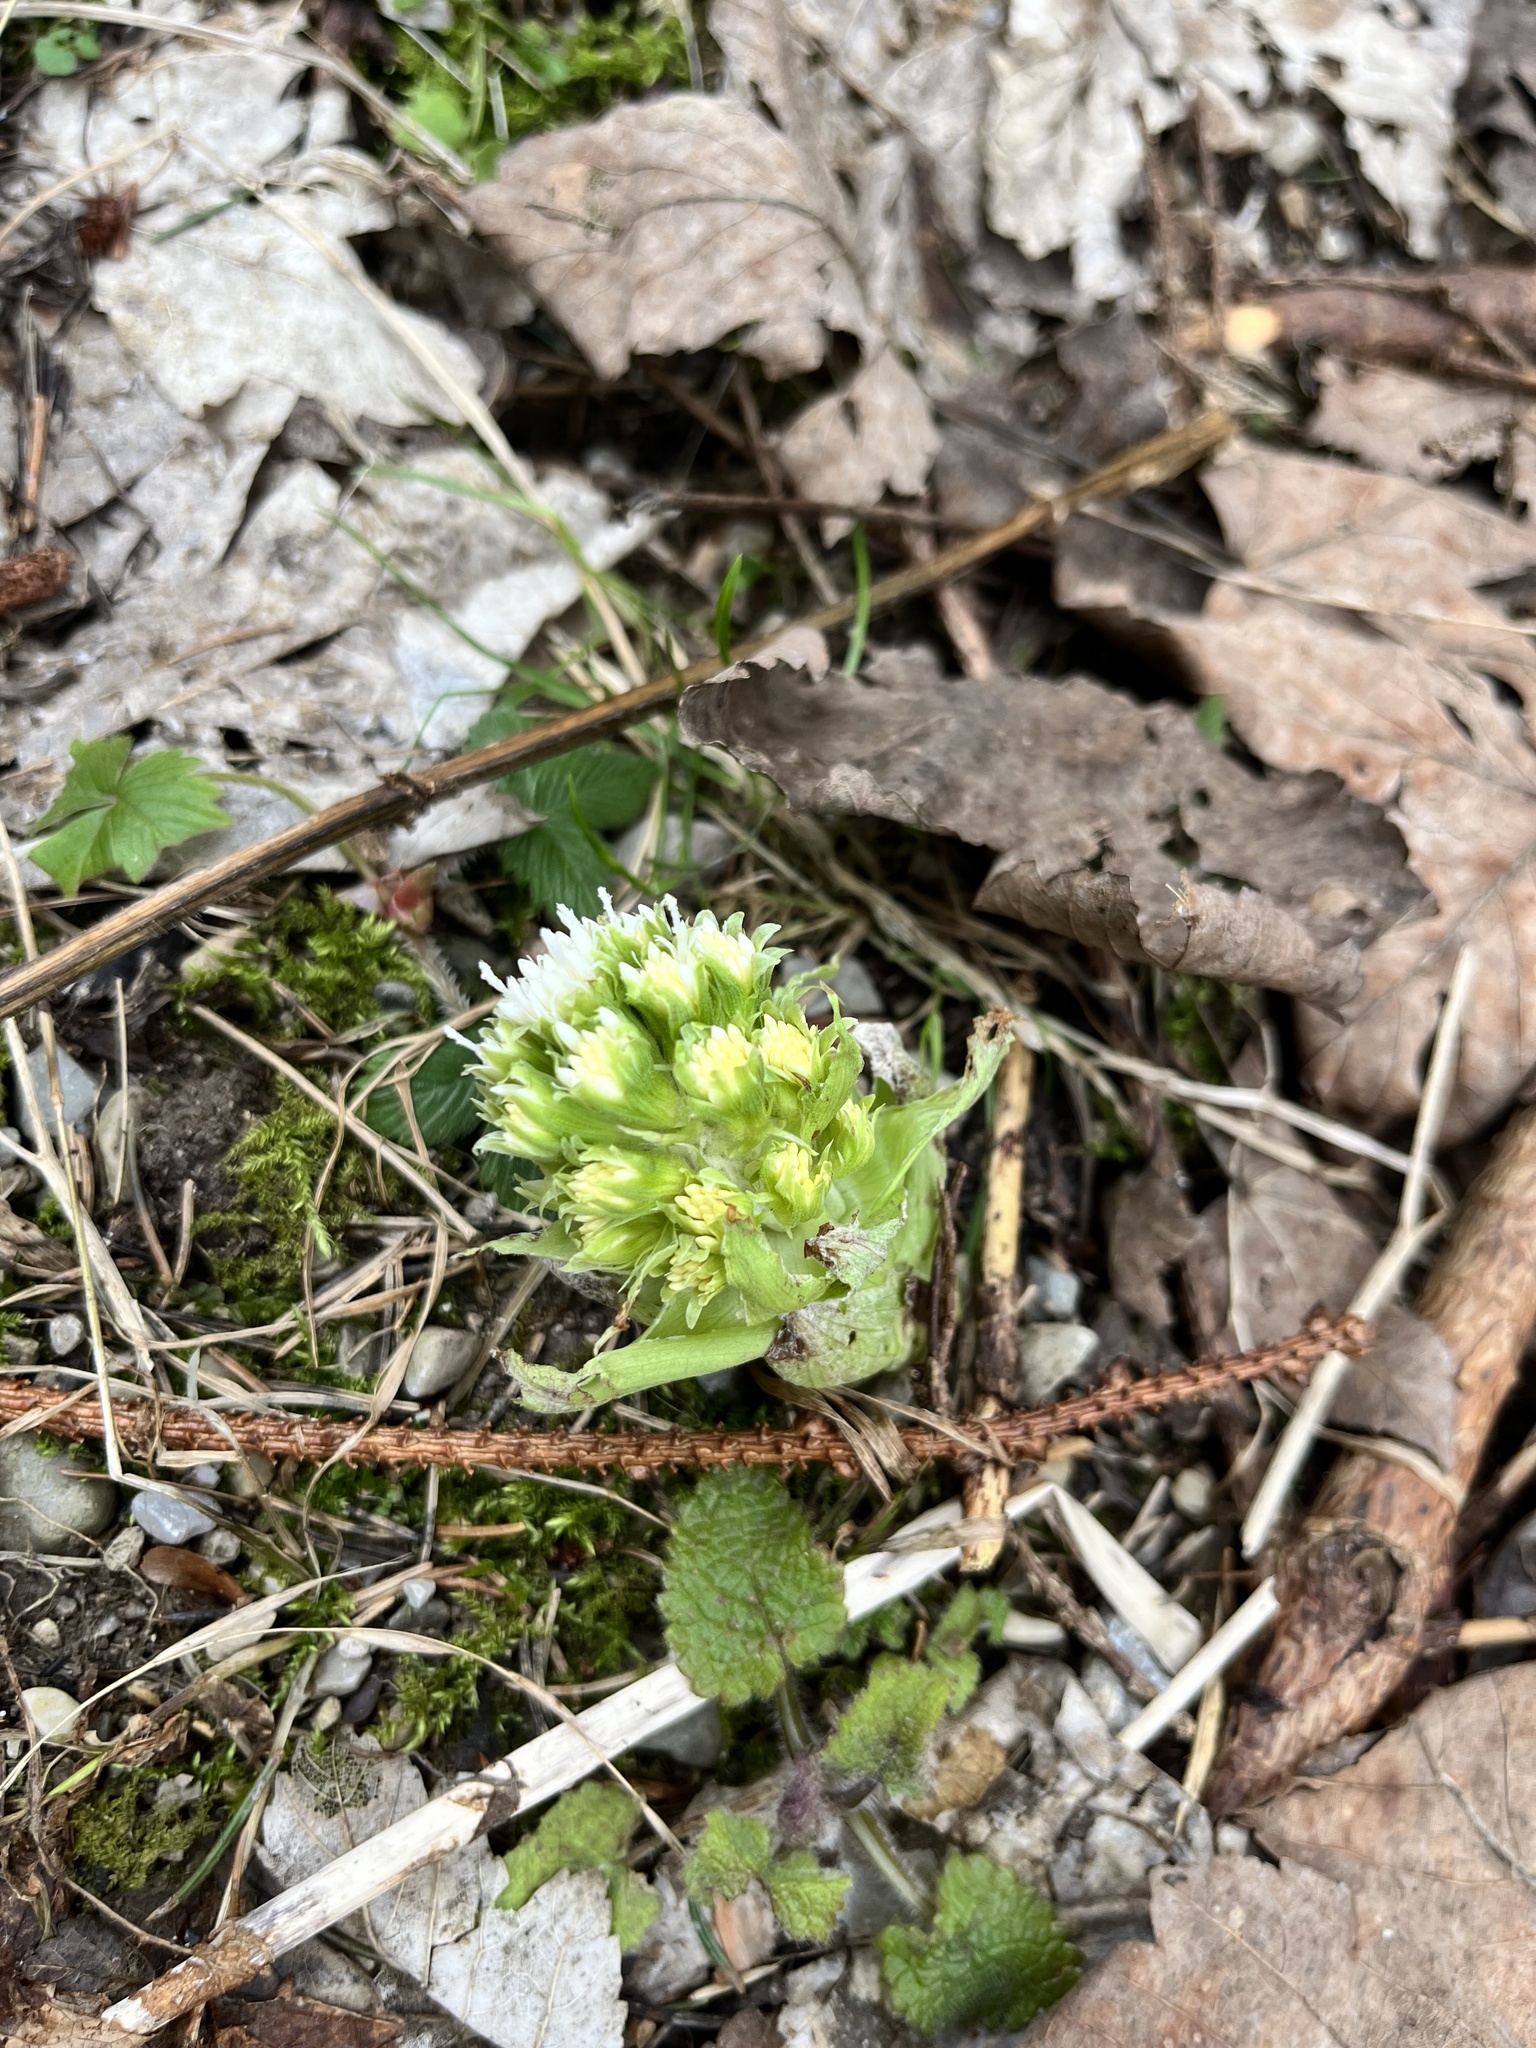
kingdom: Plantae
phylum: Tracheophyta
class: Magnoliopsida
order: Asterales
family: Asteraceae
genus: Petasites
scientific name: Petasites albus
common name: White butterbur
